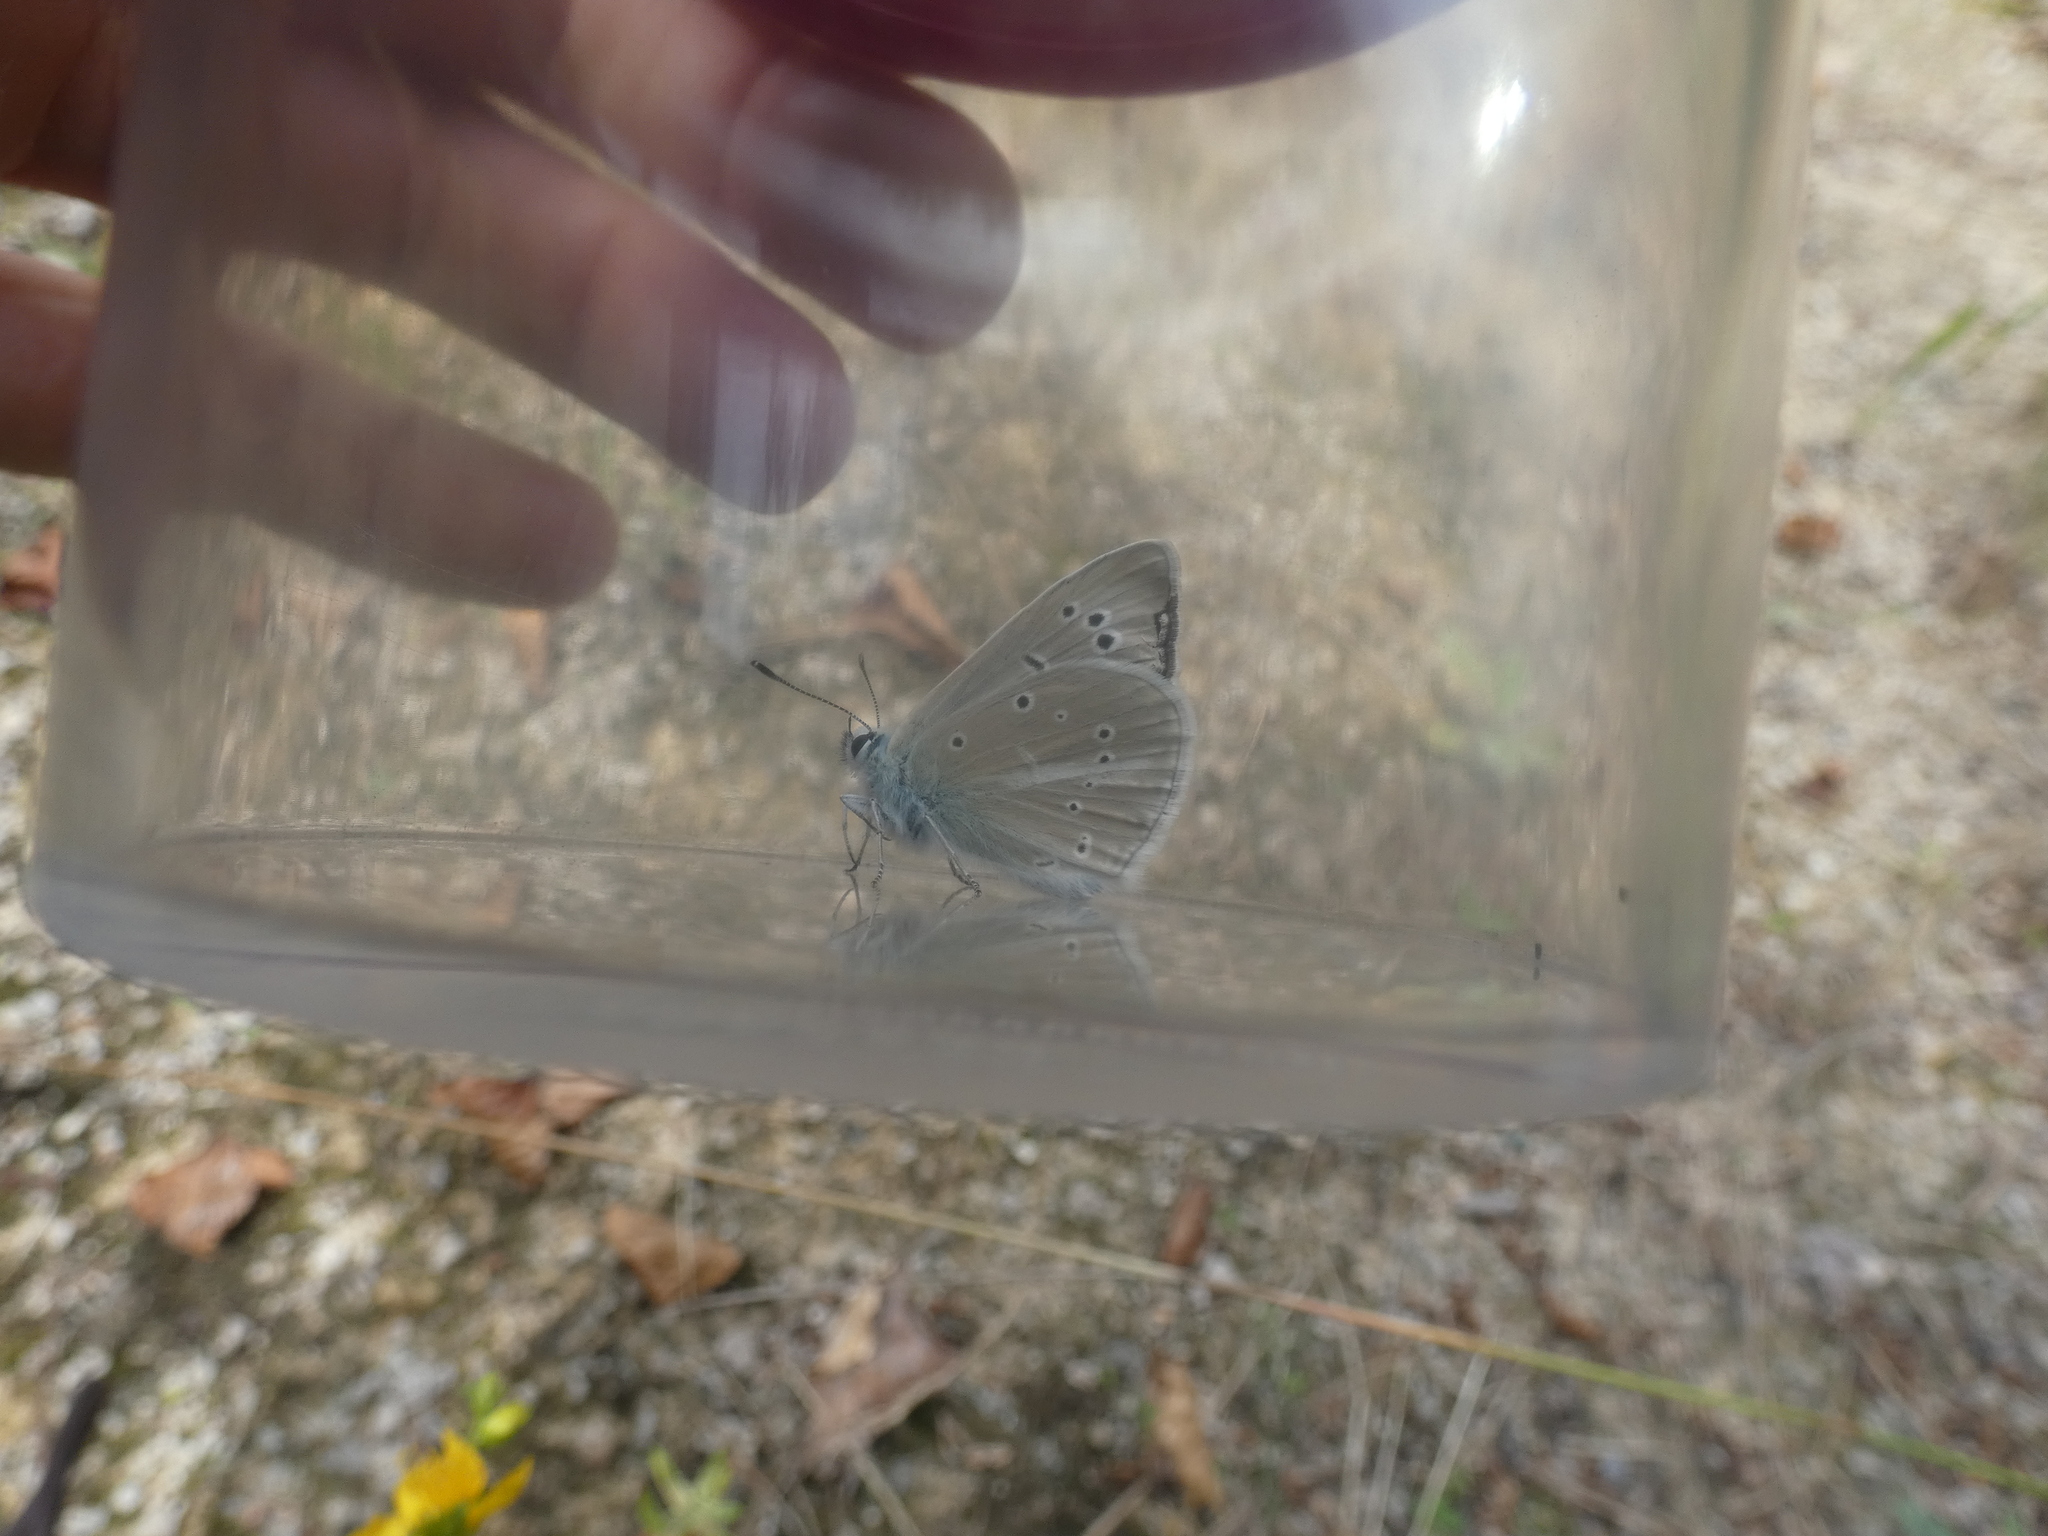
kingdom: Animalia
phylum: Arthropoda
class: Insecta
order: Lepidoptera
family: Lycaenidae
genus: Agrodiaetus
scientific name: Agrodiaetus dolus
